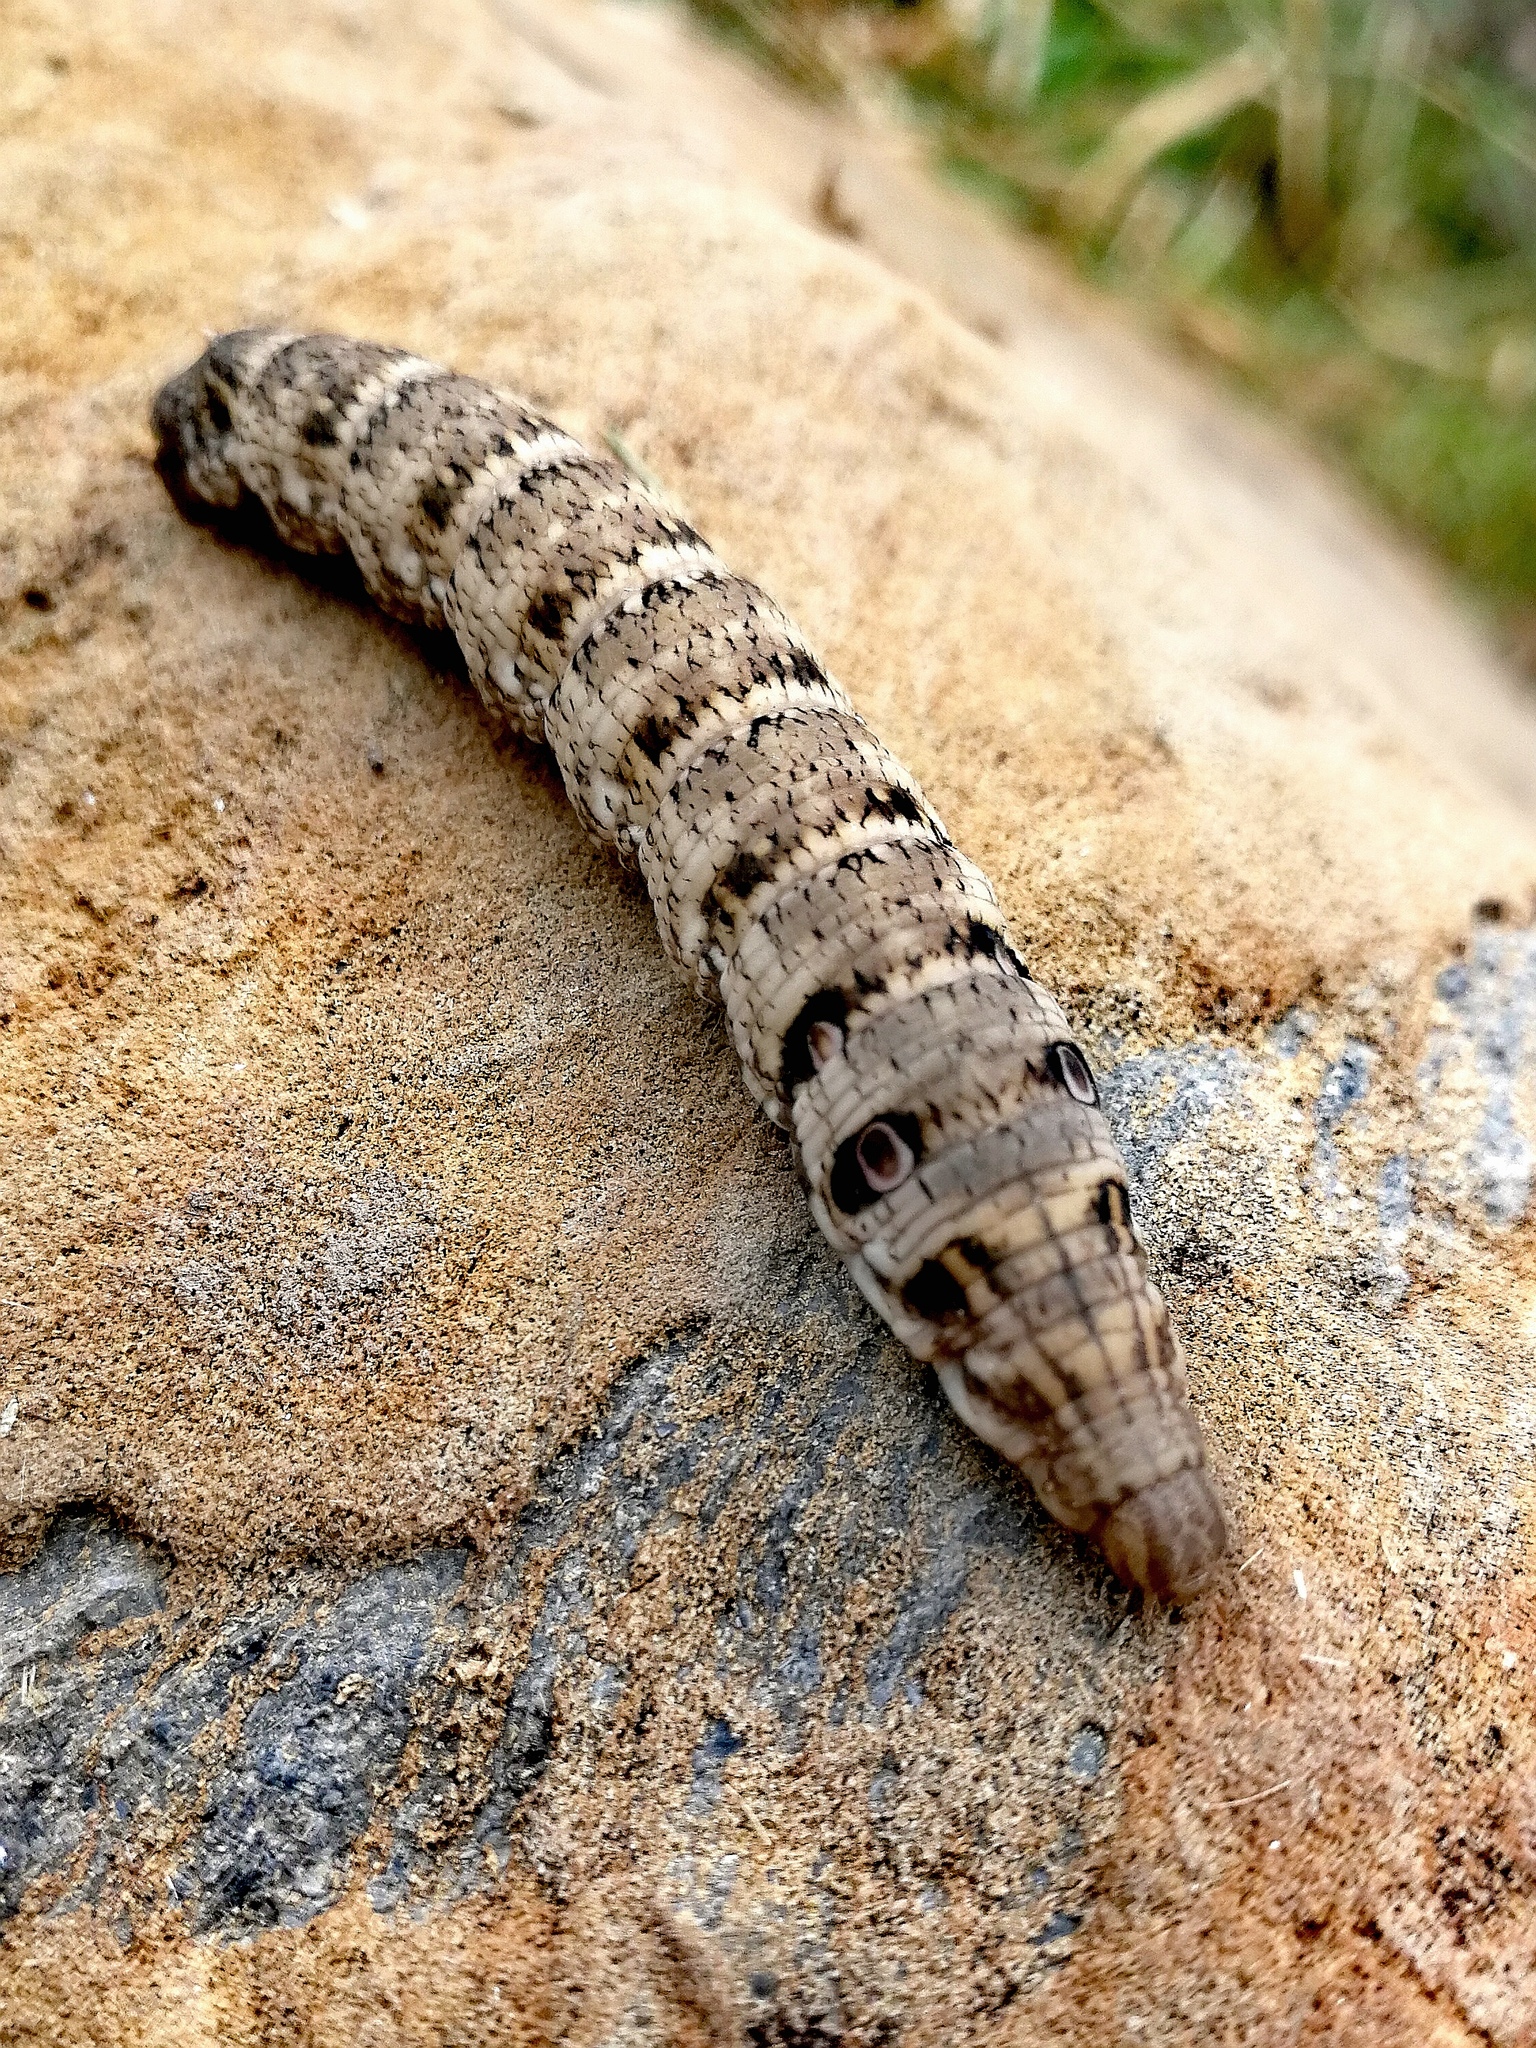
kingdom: Animalia
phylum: Arthropoda
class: Insecta
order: Lepidoptera
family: Sphingidae
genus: Deilephila
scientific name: Deilephila porcellus
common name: Small elephant hawk-moth
